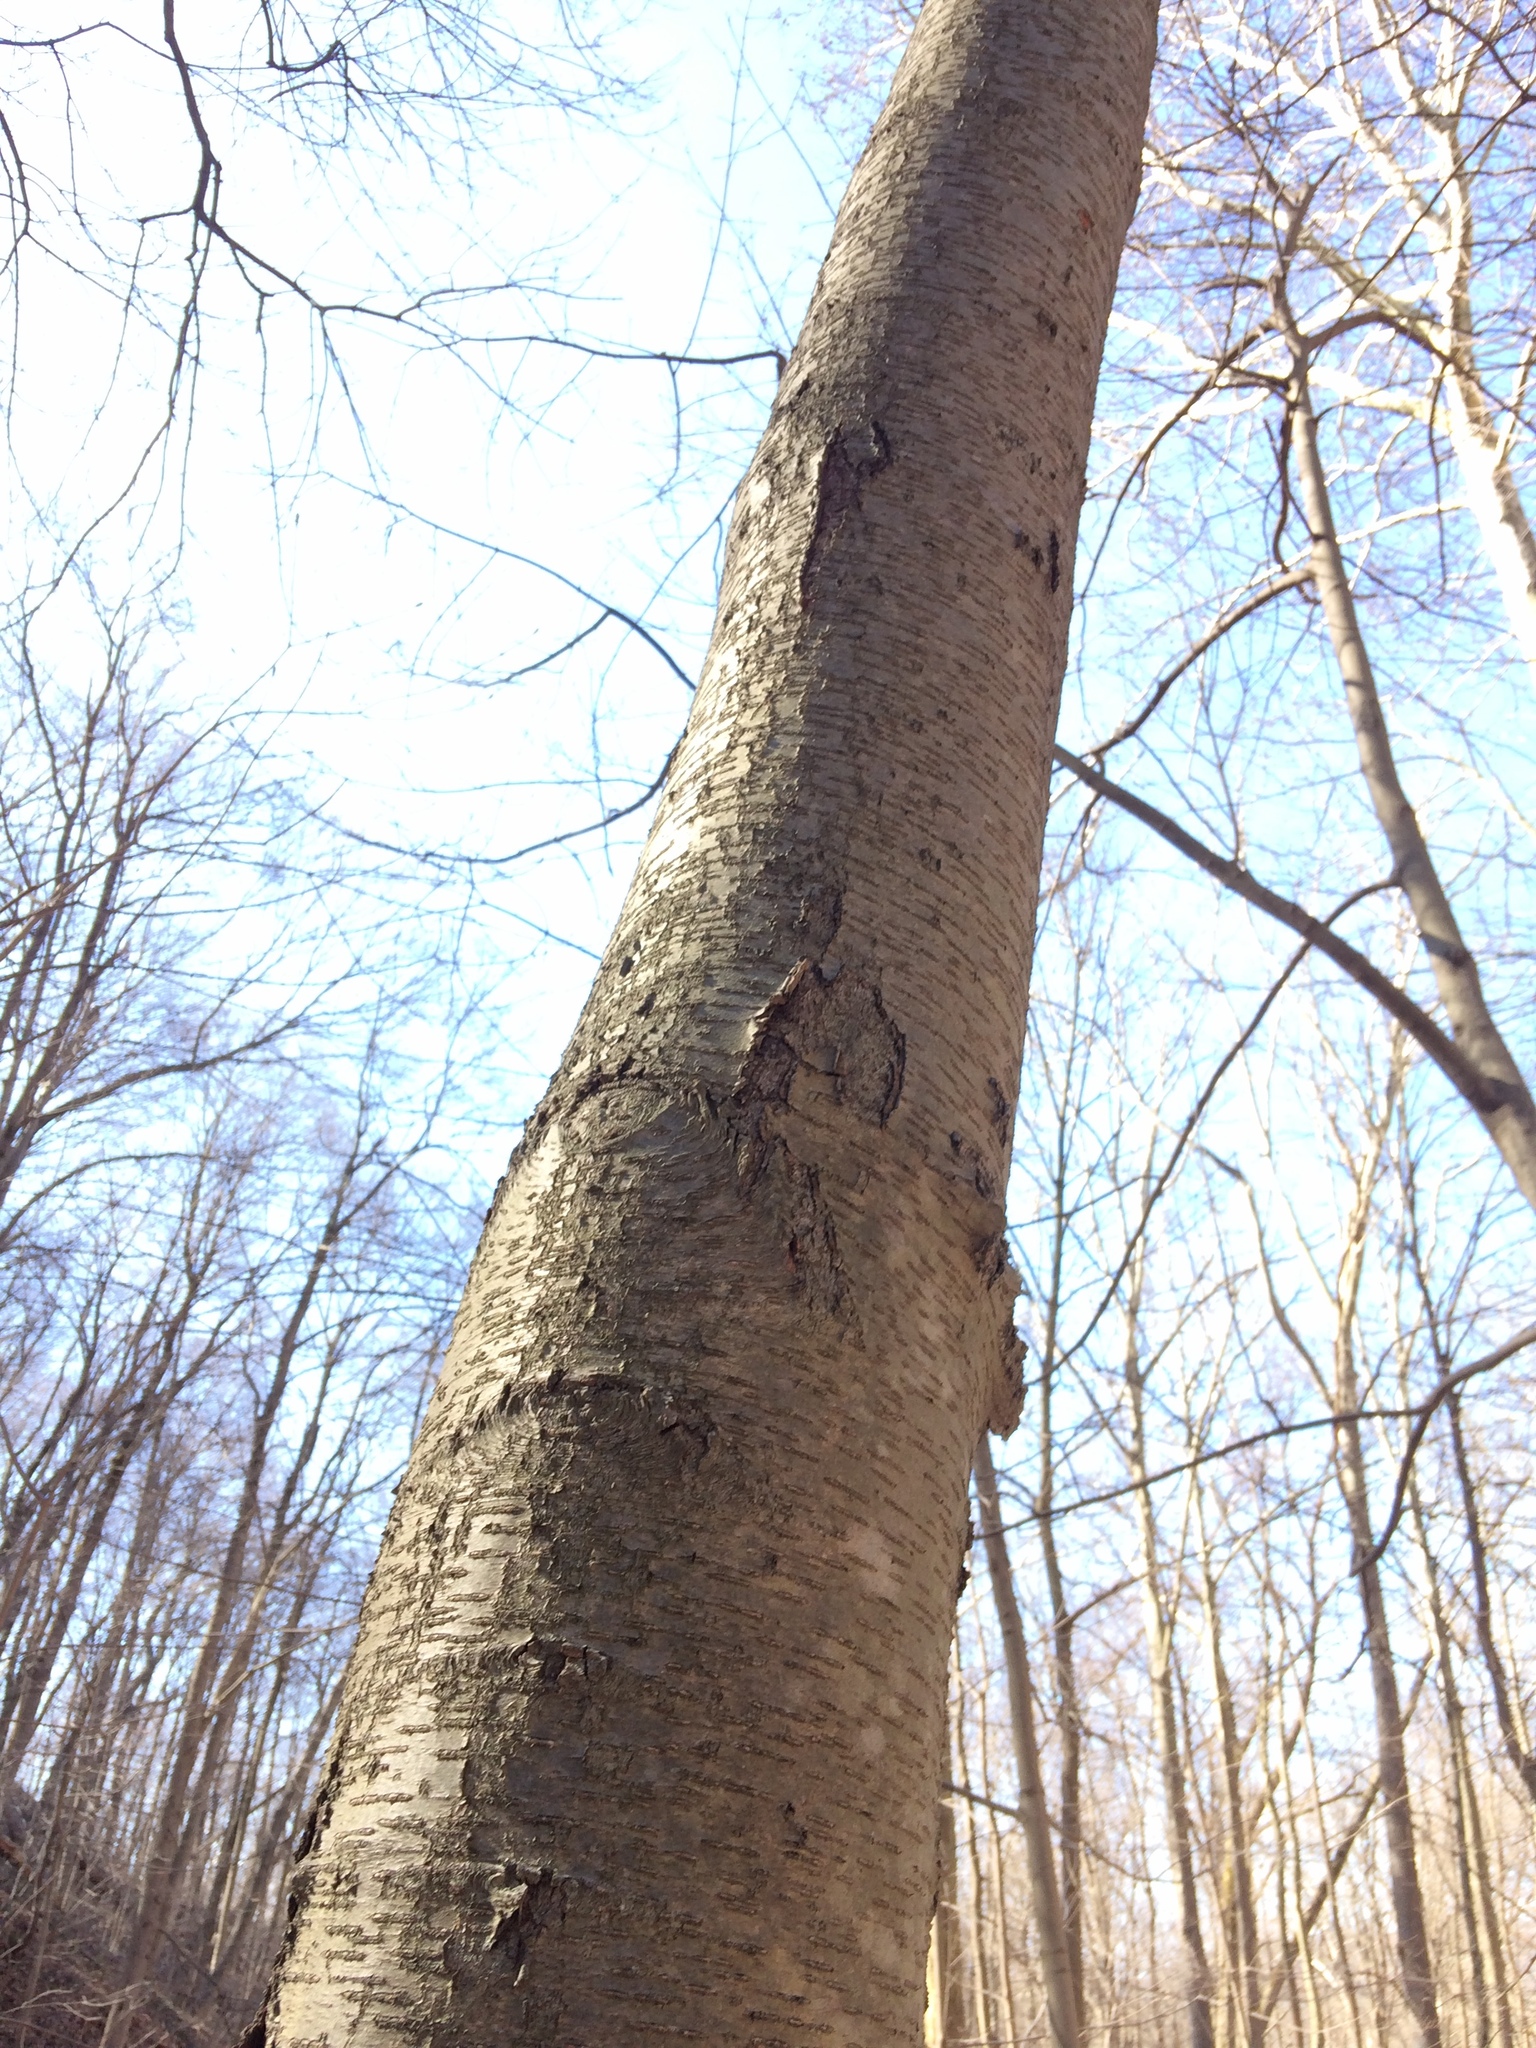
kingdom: Plantae
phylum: Tracheophyta
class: Magnoliopsida
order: Fagales
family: Betulaceae
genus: Betula
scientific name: Betula lenta
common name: Black birch
